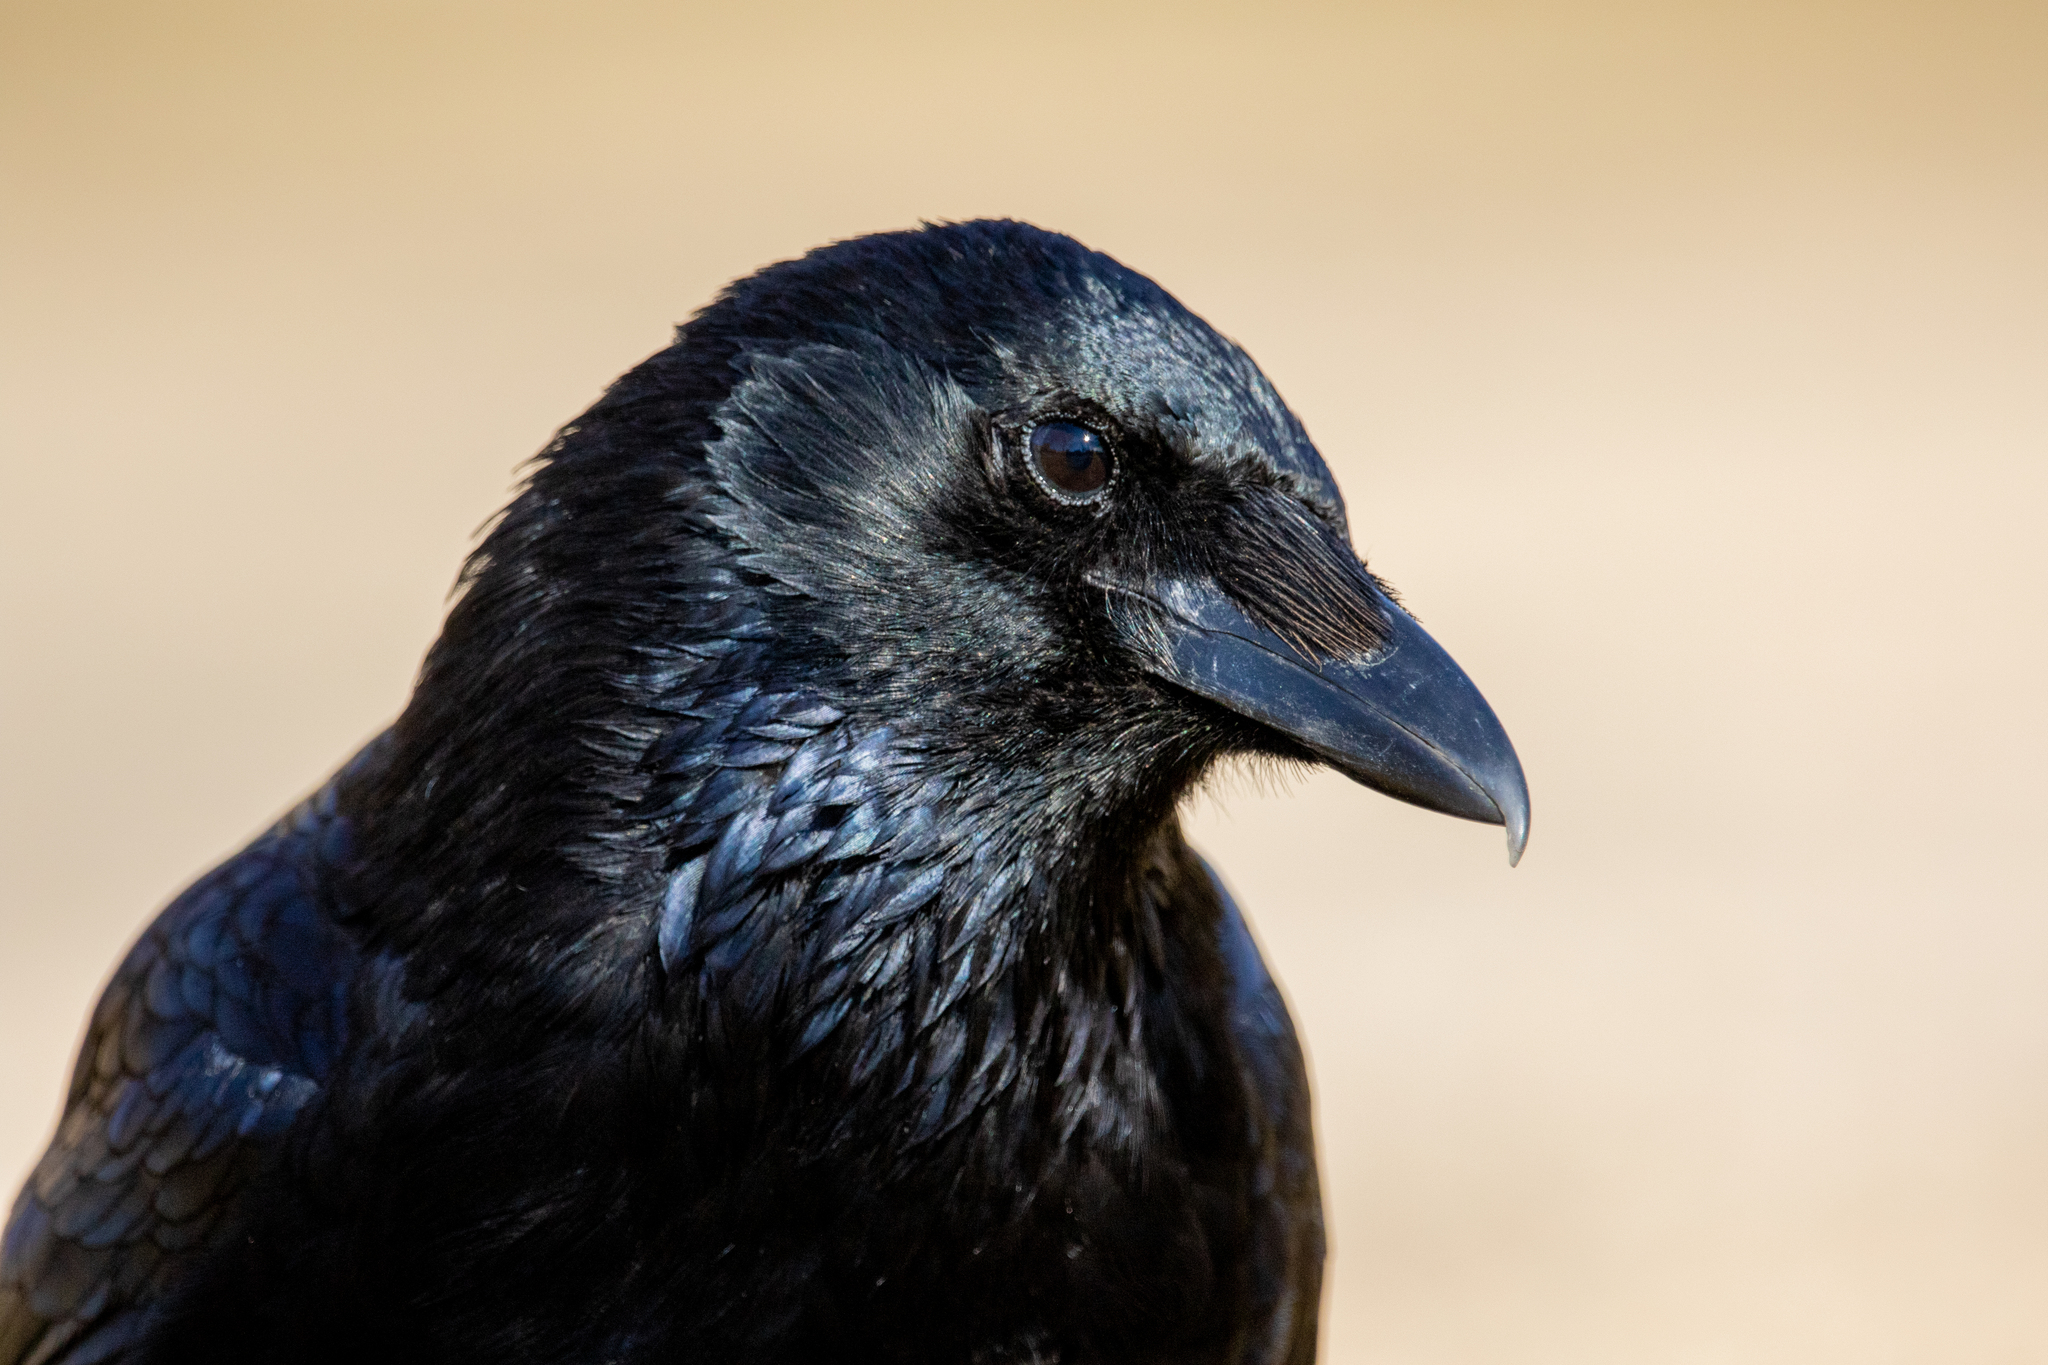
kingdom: Animalia
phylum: Chordata
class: Aves
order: Passeriformes
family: Corvidae
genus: Corvus
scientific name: Corvus corone
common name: Carrion crow
